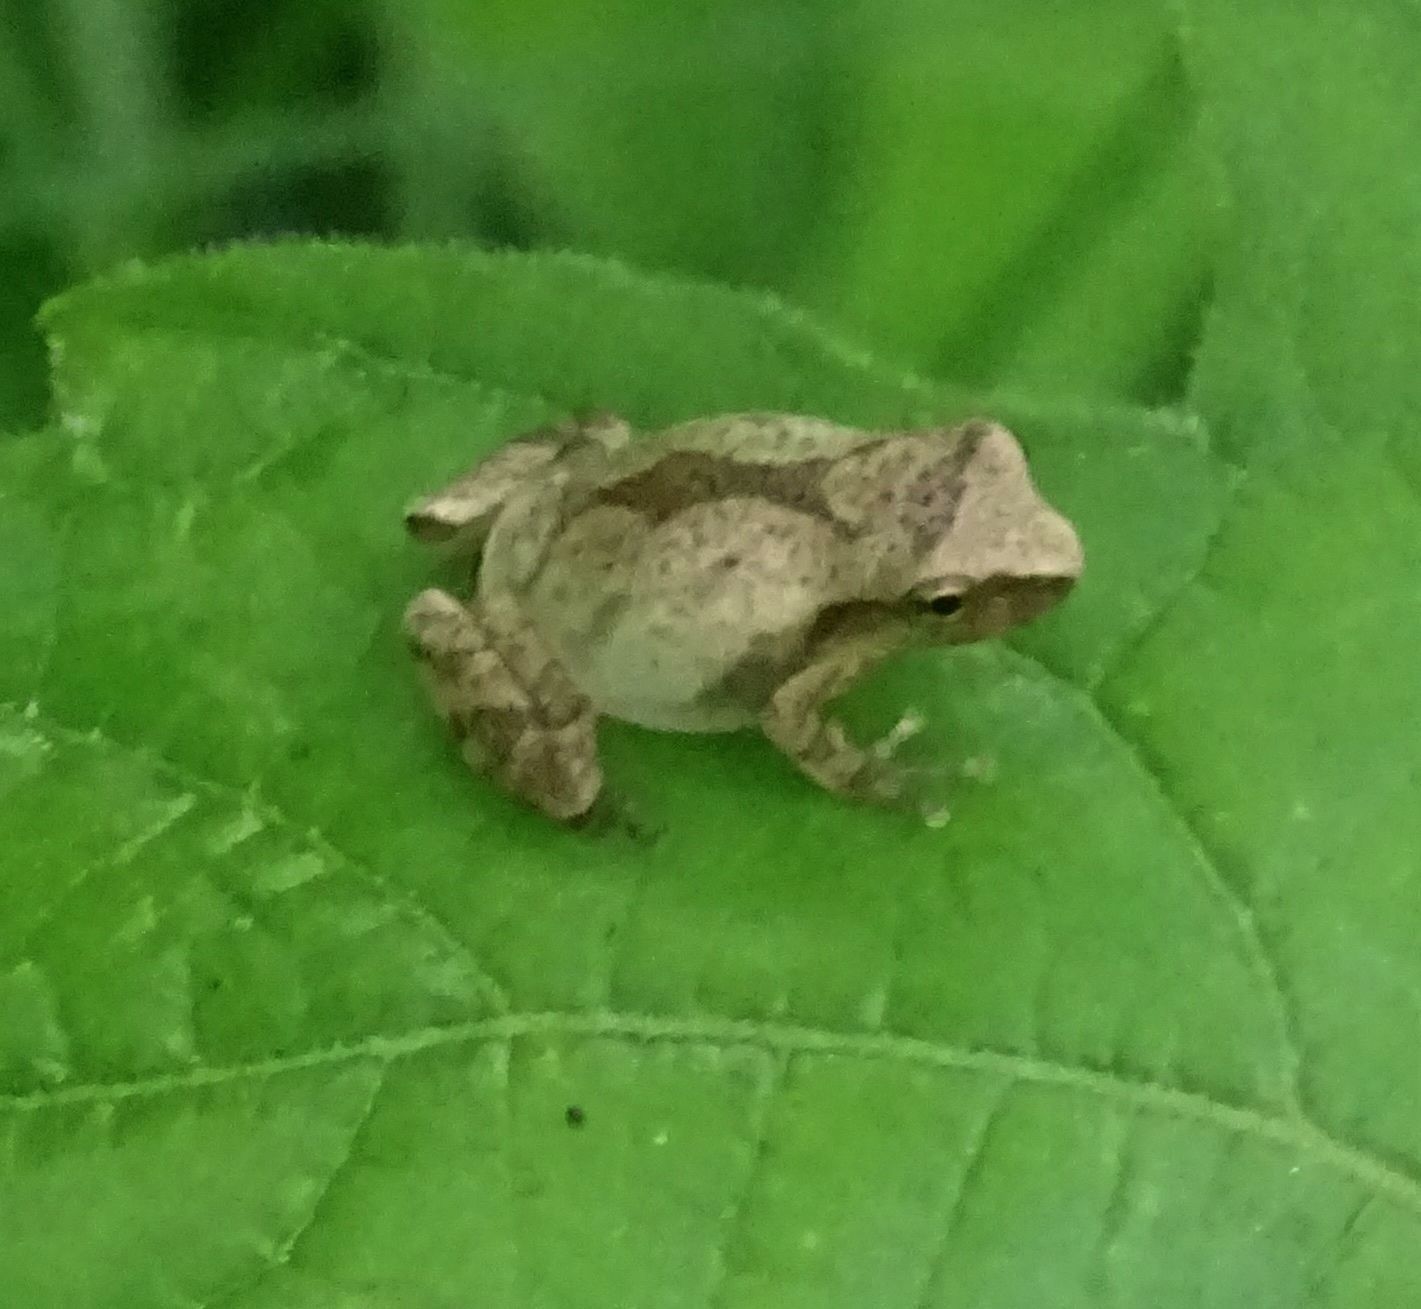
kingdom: Animalia
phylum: Chordata
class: Amphibia
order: Anura
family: Hylidae
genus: Pseudacris
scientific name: Pseudacris crucifer
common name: Spring peeper
